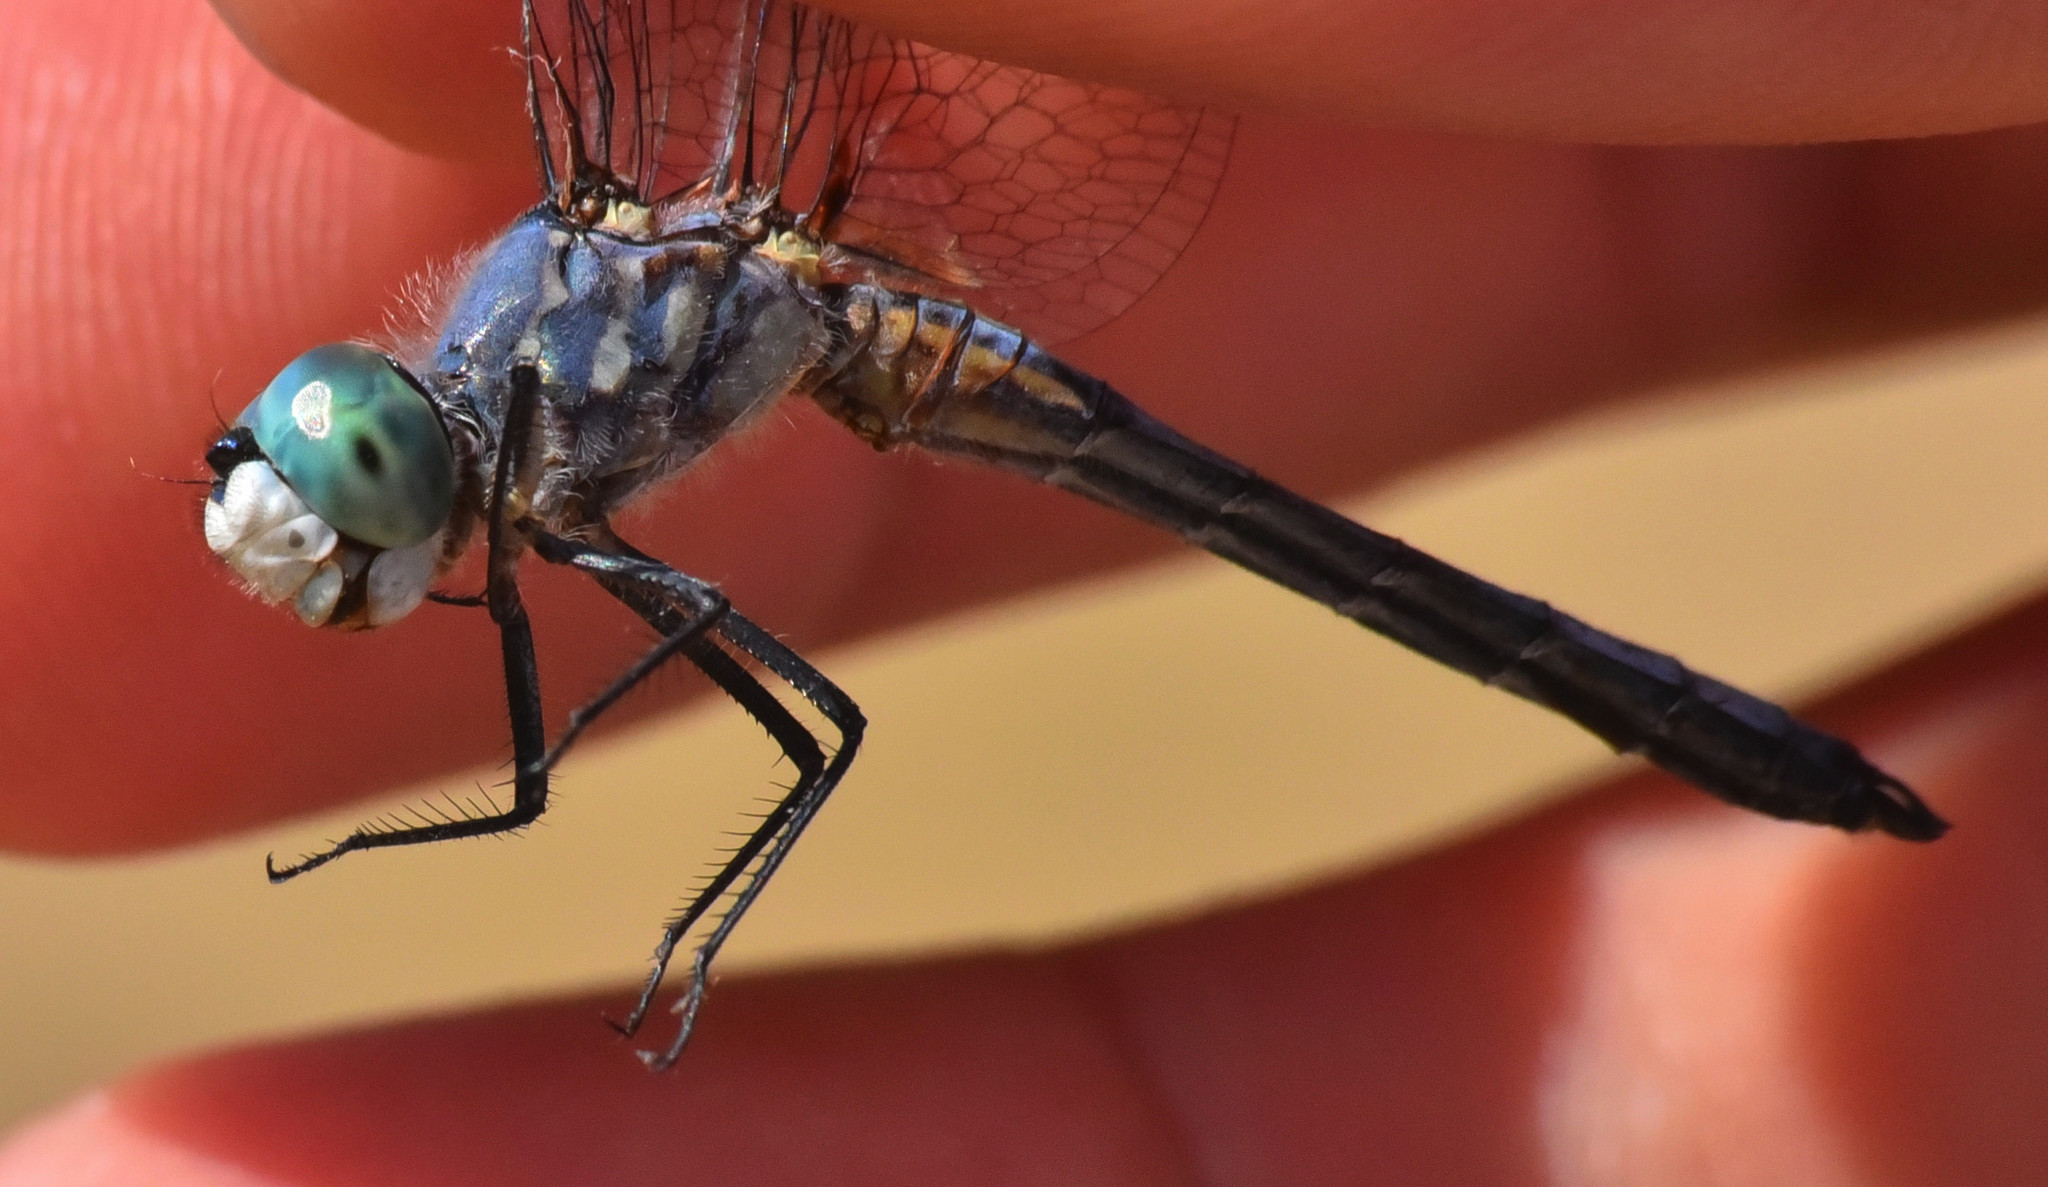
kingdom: Animalia
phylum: Arthropoda
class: Insecta
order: Odonata
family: Libellulidae
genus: Pachydiplax
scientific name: Pachydiplax longipennis
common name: Blue dasher
